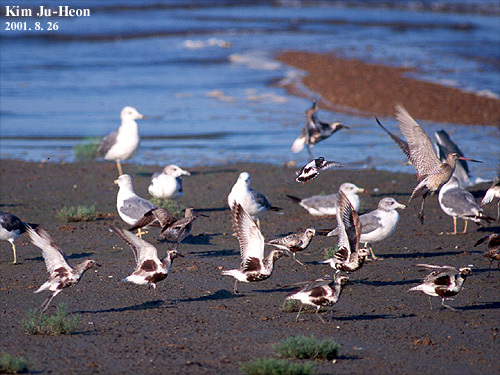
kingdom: Animalia
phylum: Chordata
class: Aves
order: Charadriiformes
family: Charadriidae
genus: Pluvialis
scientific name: Pluvialis squatarola
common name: Grey plover
